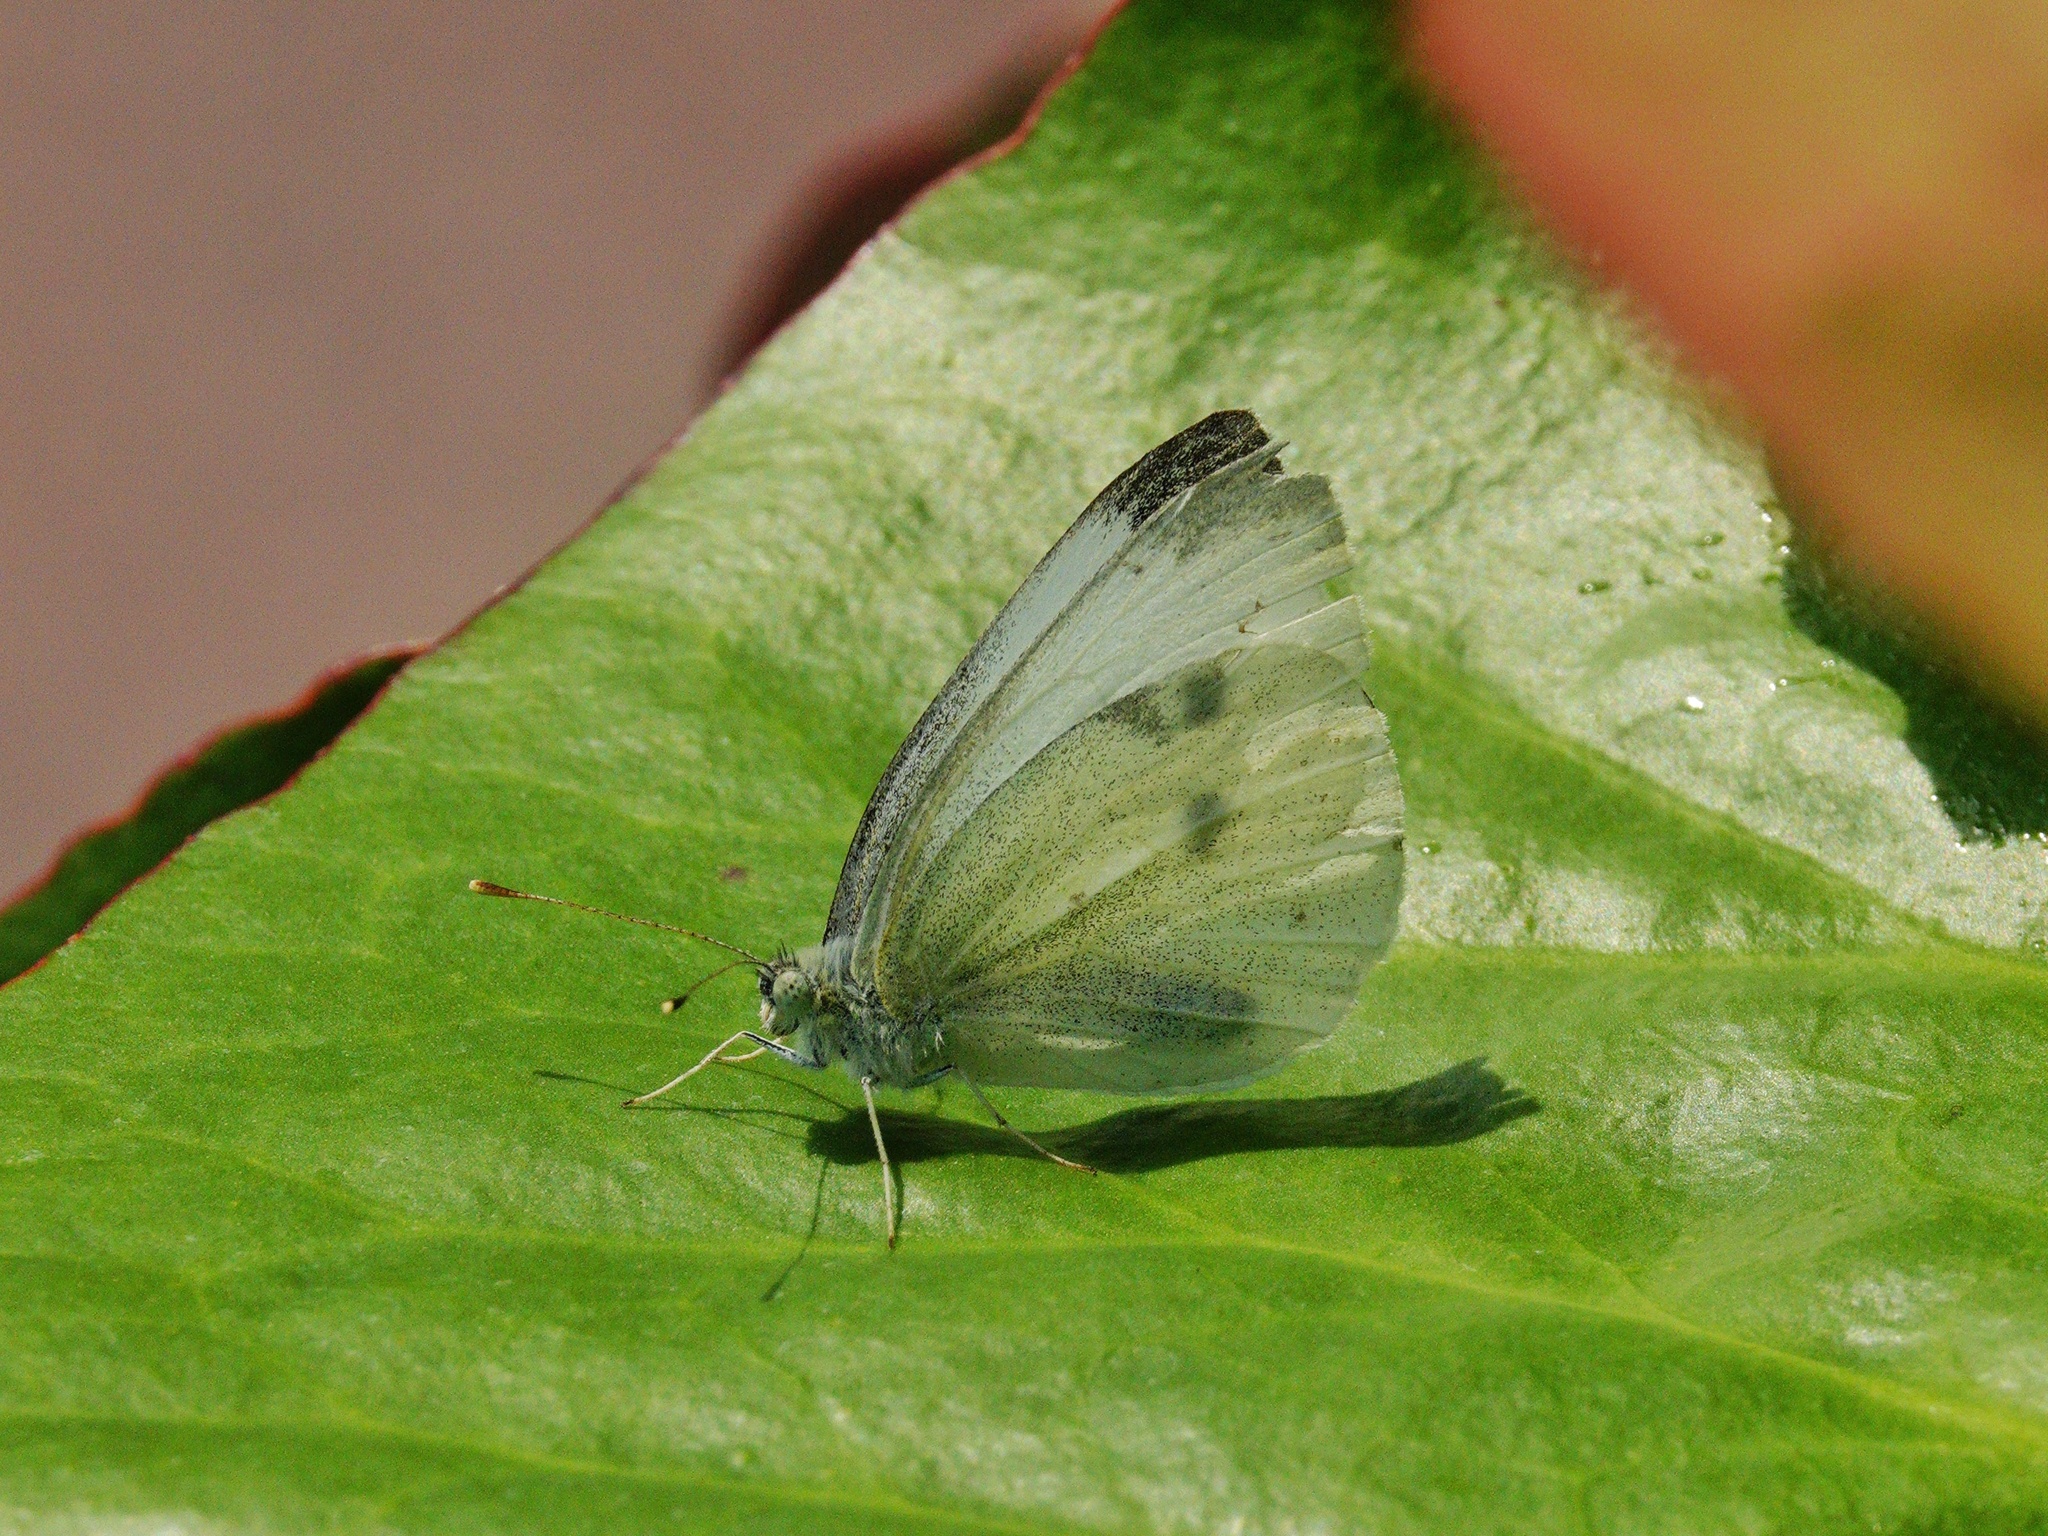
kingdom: Animalia
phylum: Arthropoda
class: Insecta
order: Lepidoptera
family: Pieridae
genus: Pieris
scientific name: Pieris rapae
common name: Small white
